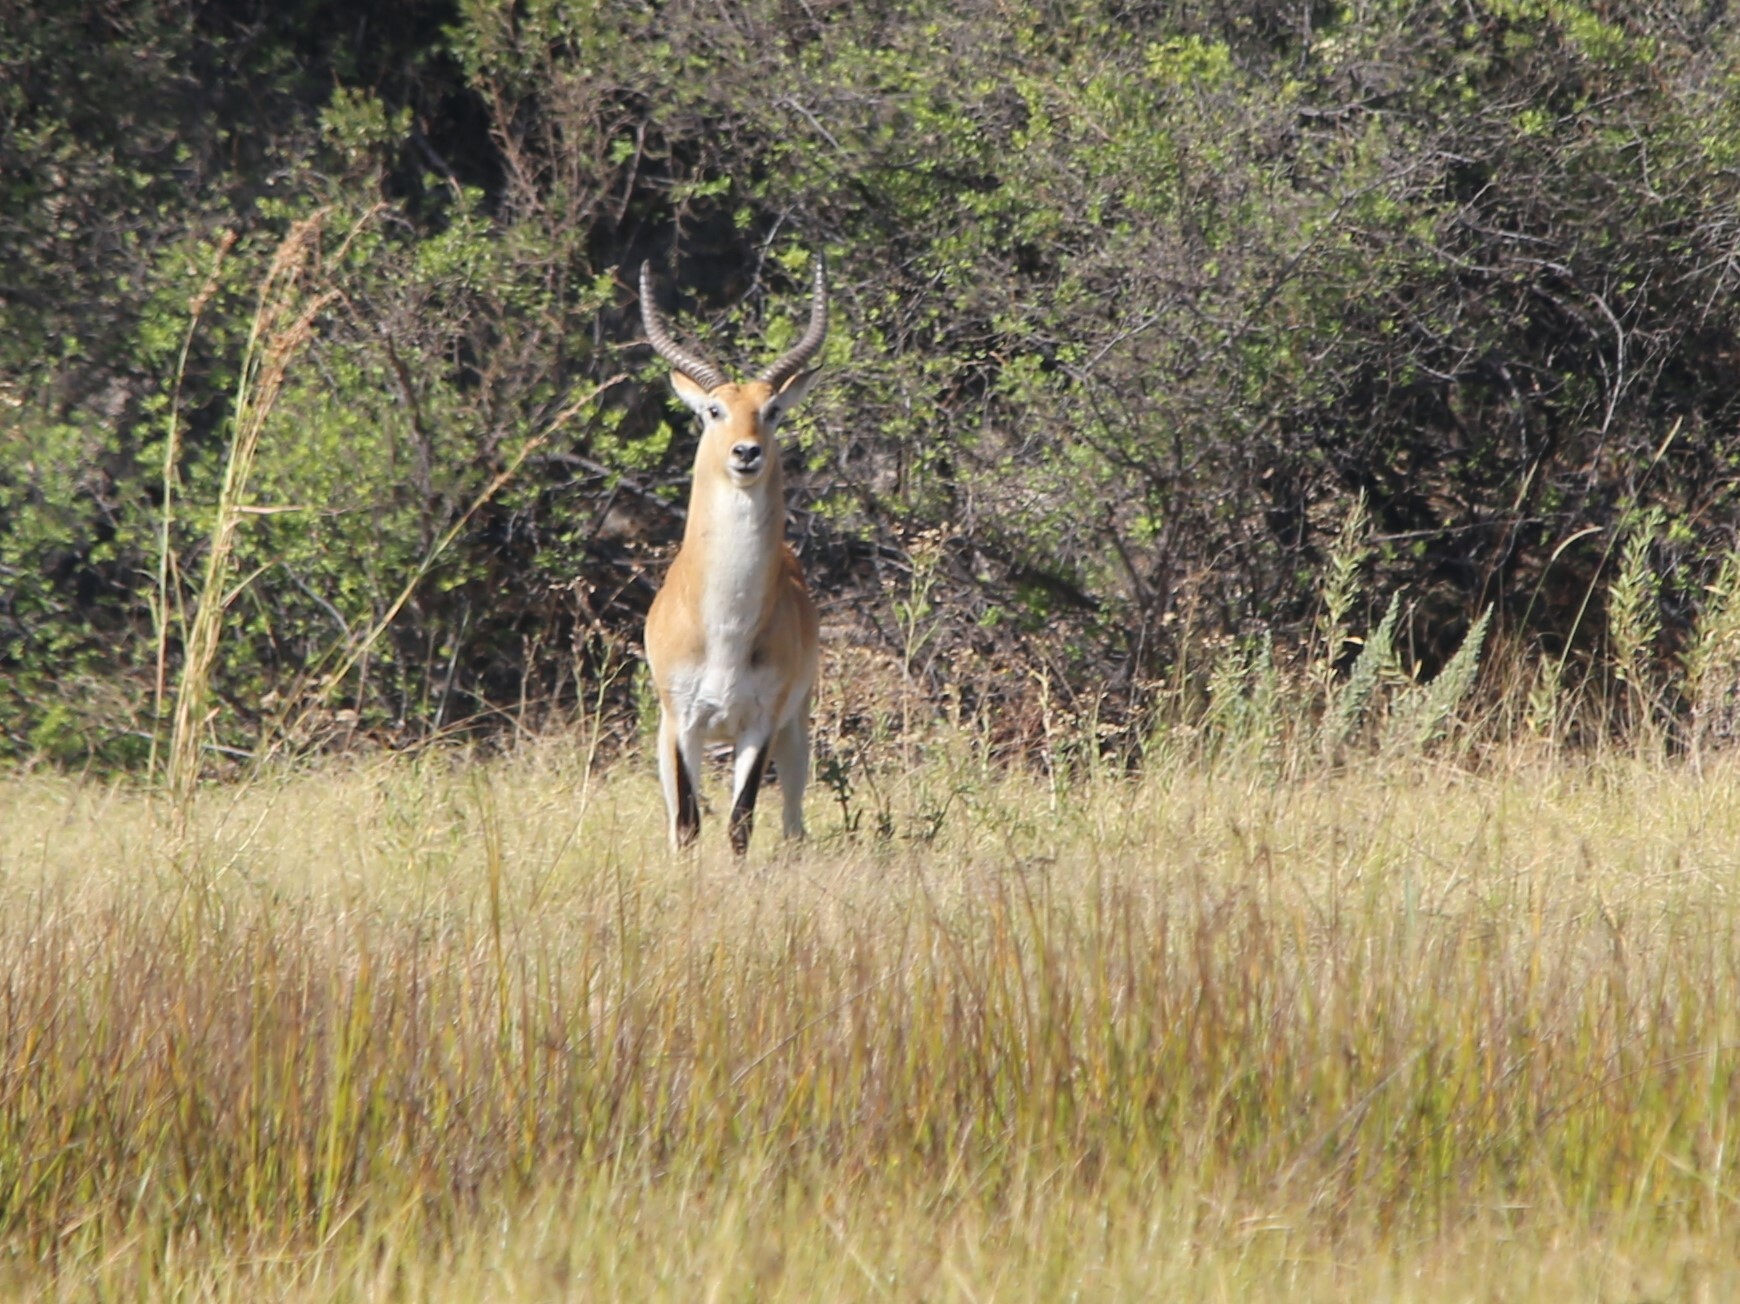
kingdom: Animalia
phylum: Chordata
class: Mammalia
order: Artiodactyla
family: Bovidae
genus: Kobus
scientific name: Kobus leche
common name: Lechwe
